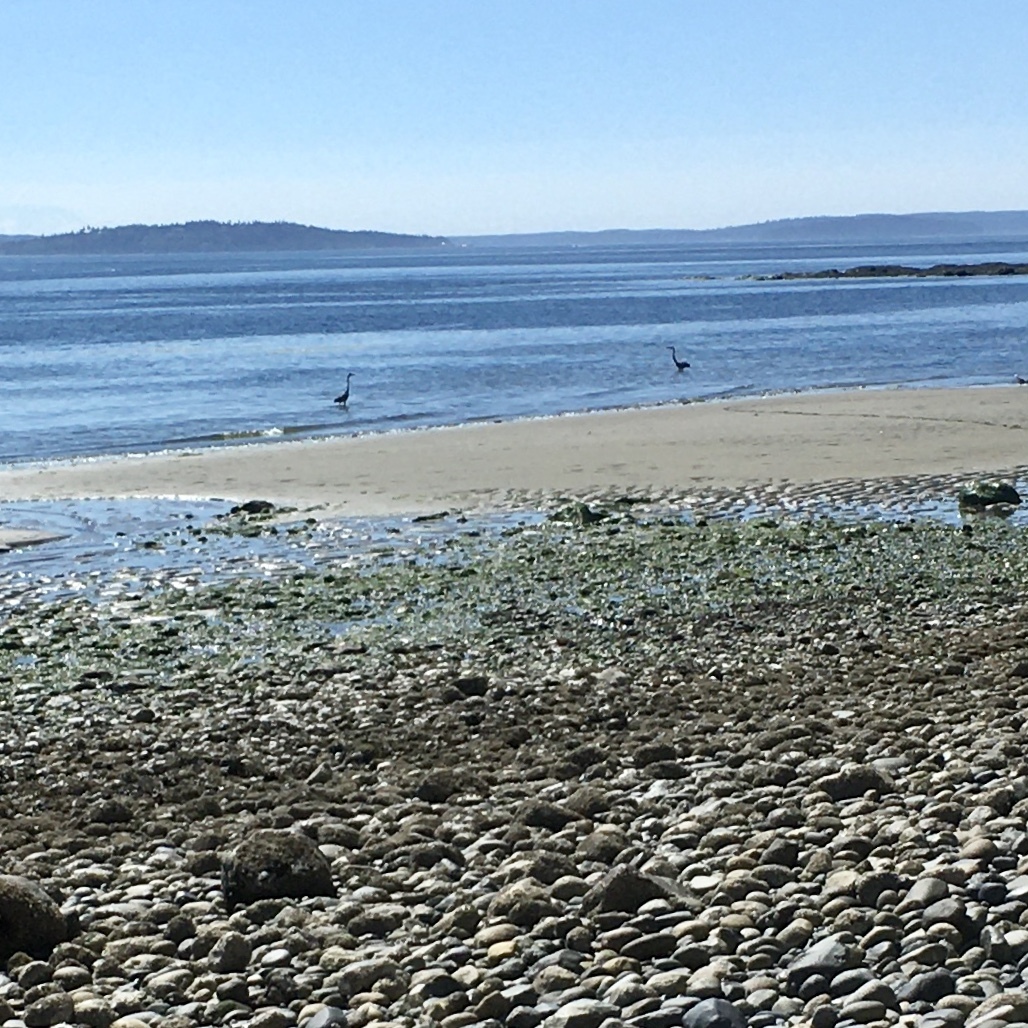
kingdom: Animalia
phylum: Chordata
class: Aves
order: Pelecaniformes
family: Ardeidae
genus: Ardea
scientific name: Ardea herodias
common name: Great blue heron
